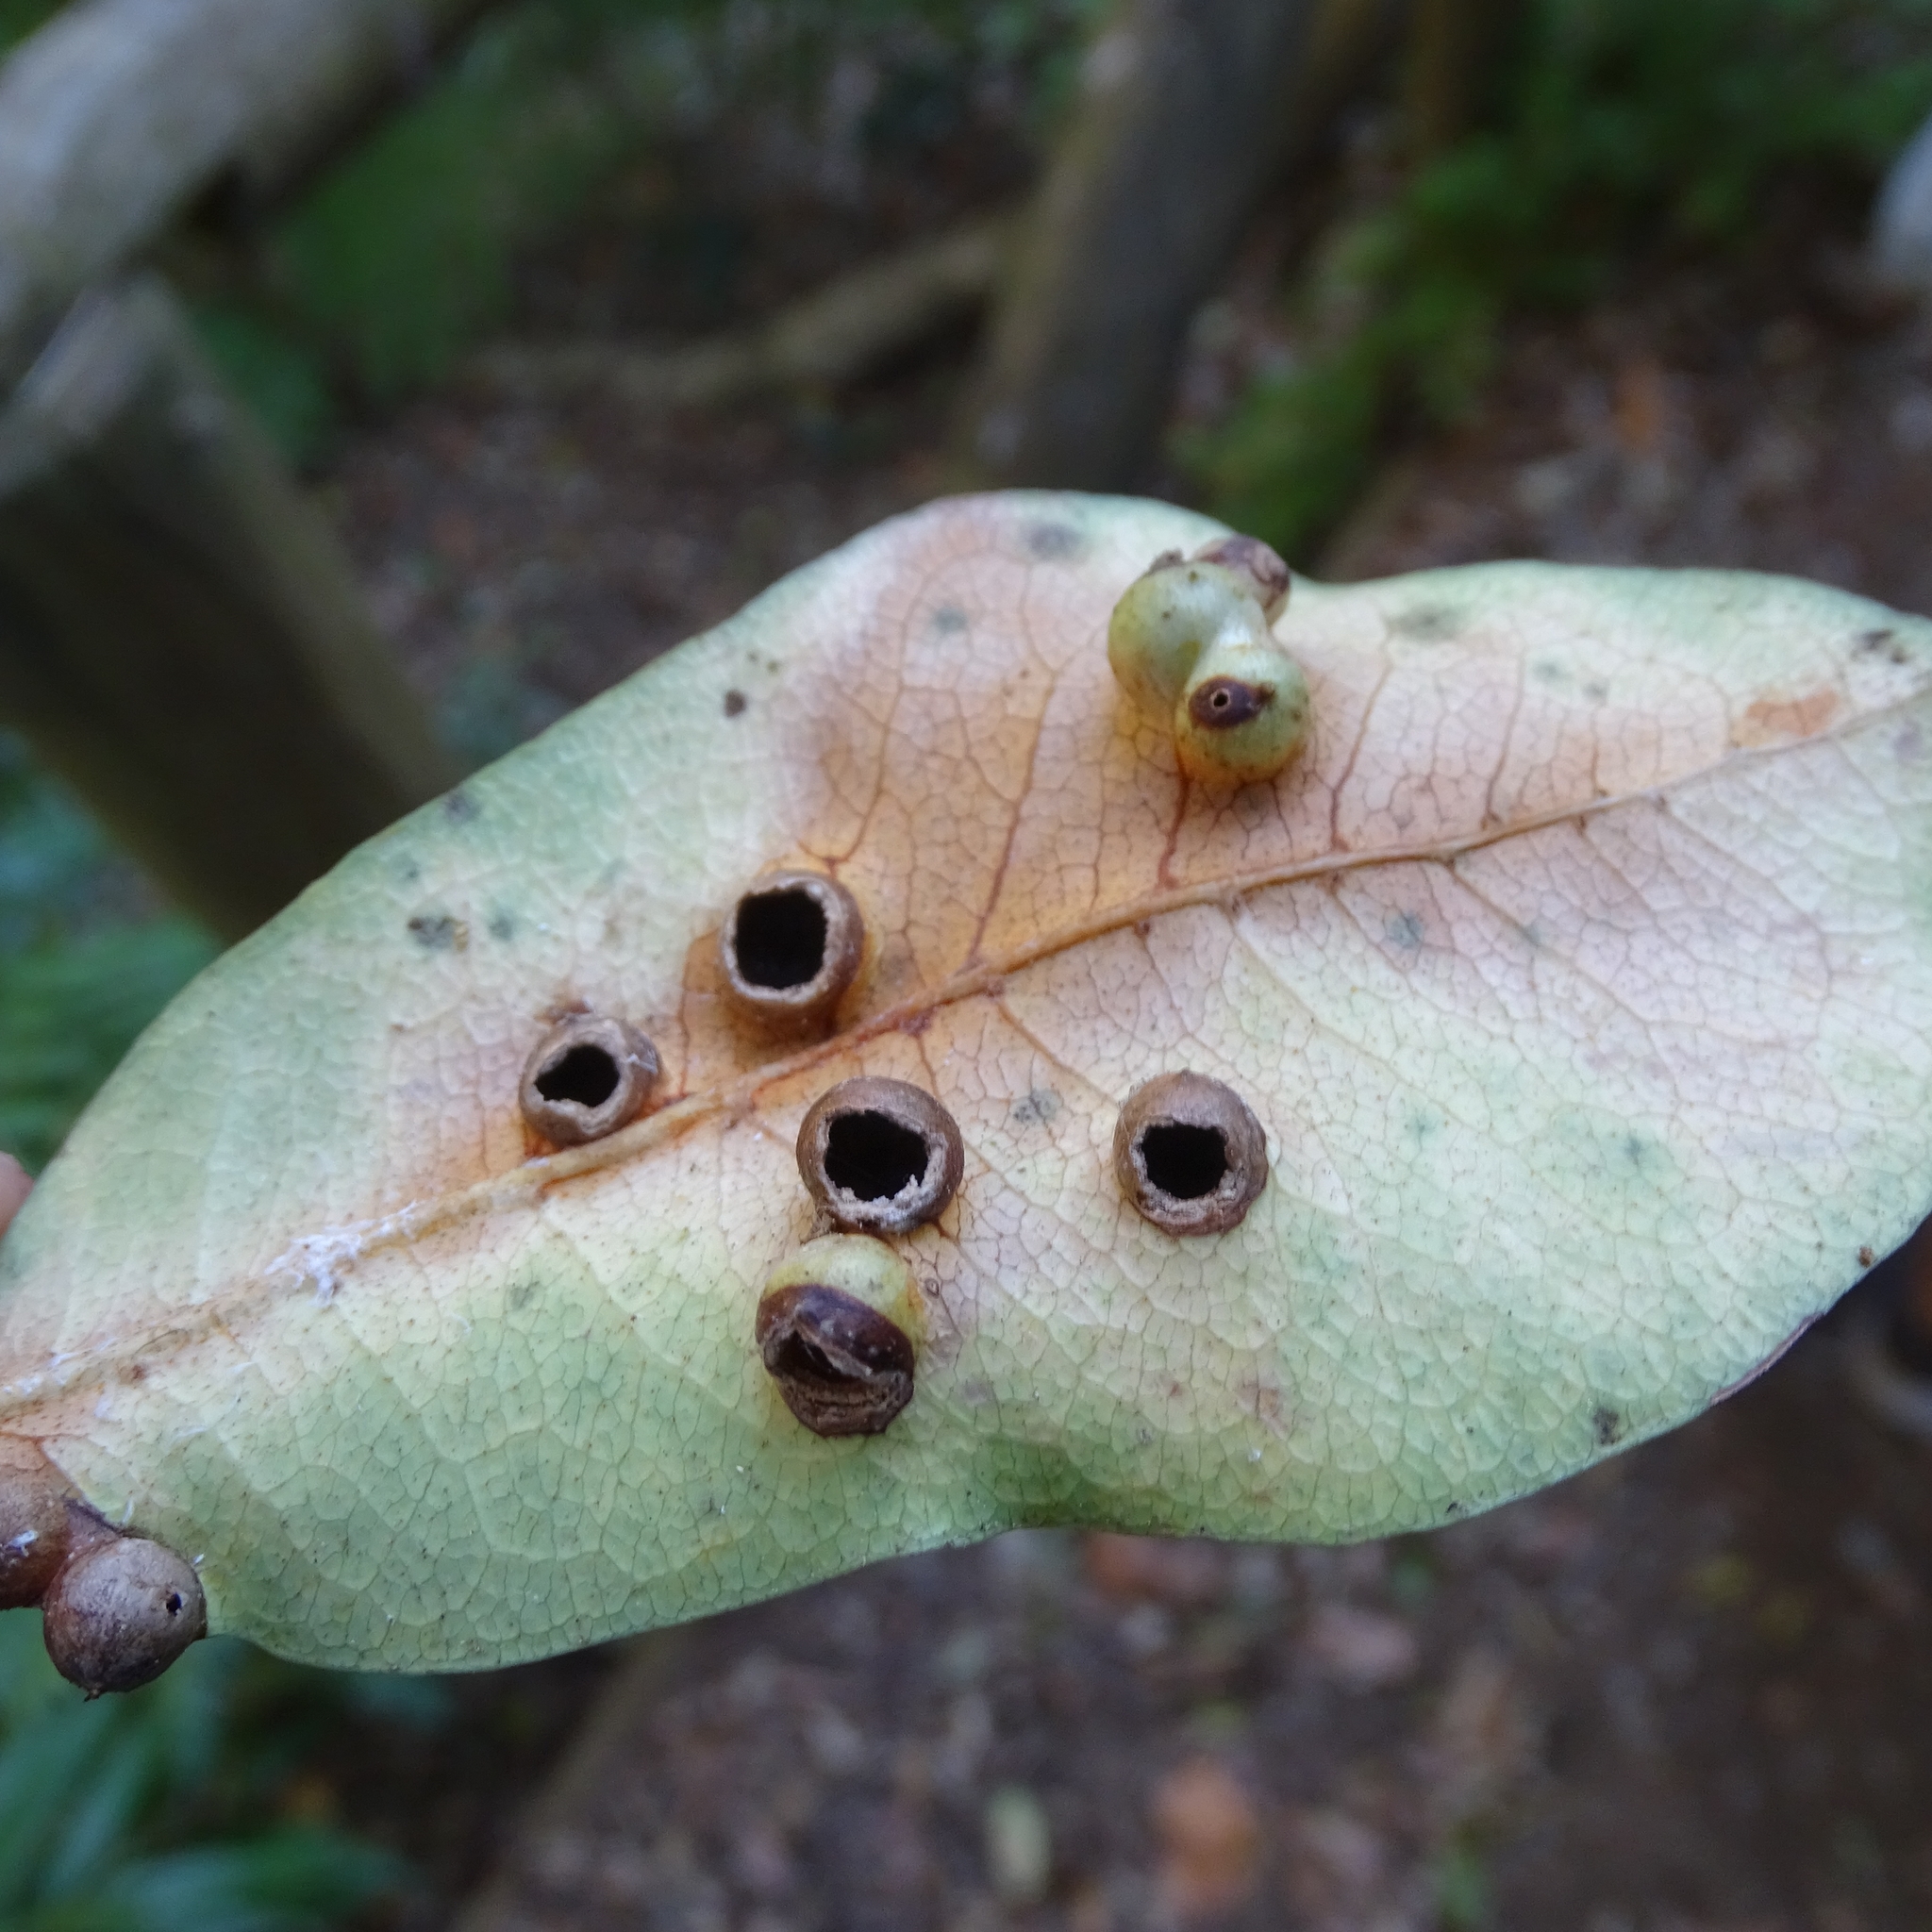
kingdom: Animalia
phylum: Arthropoda
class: Insecta
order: Diptera
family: Cecidomyiidae
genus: Angeiomyia
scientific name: Angeiomyia spinulosa
